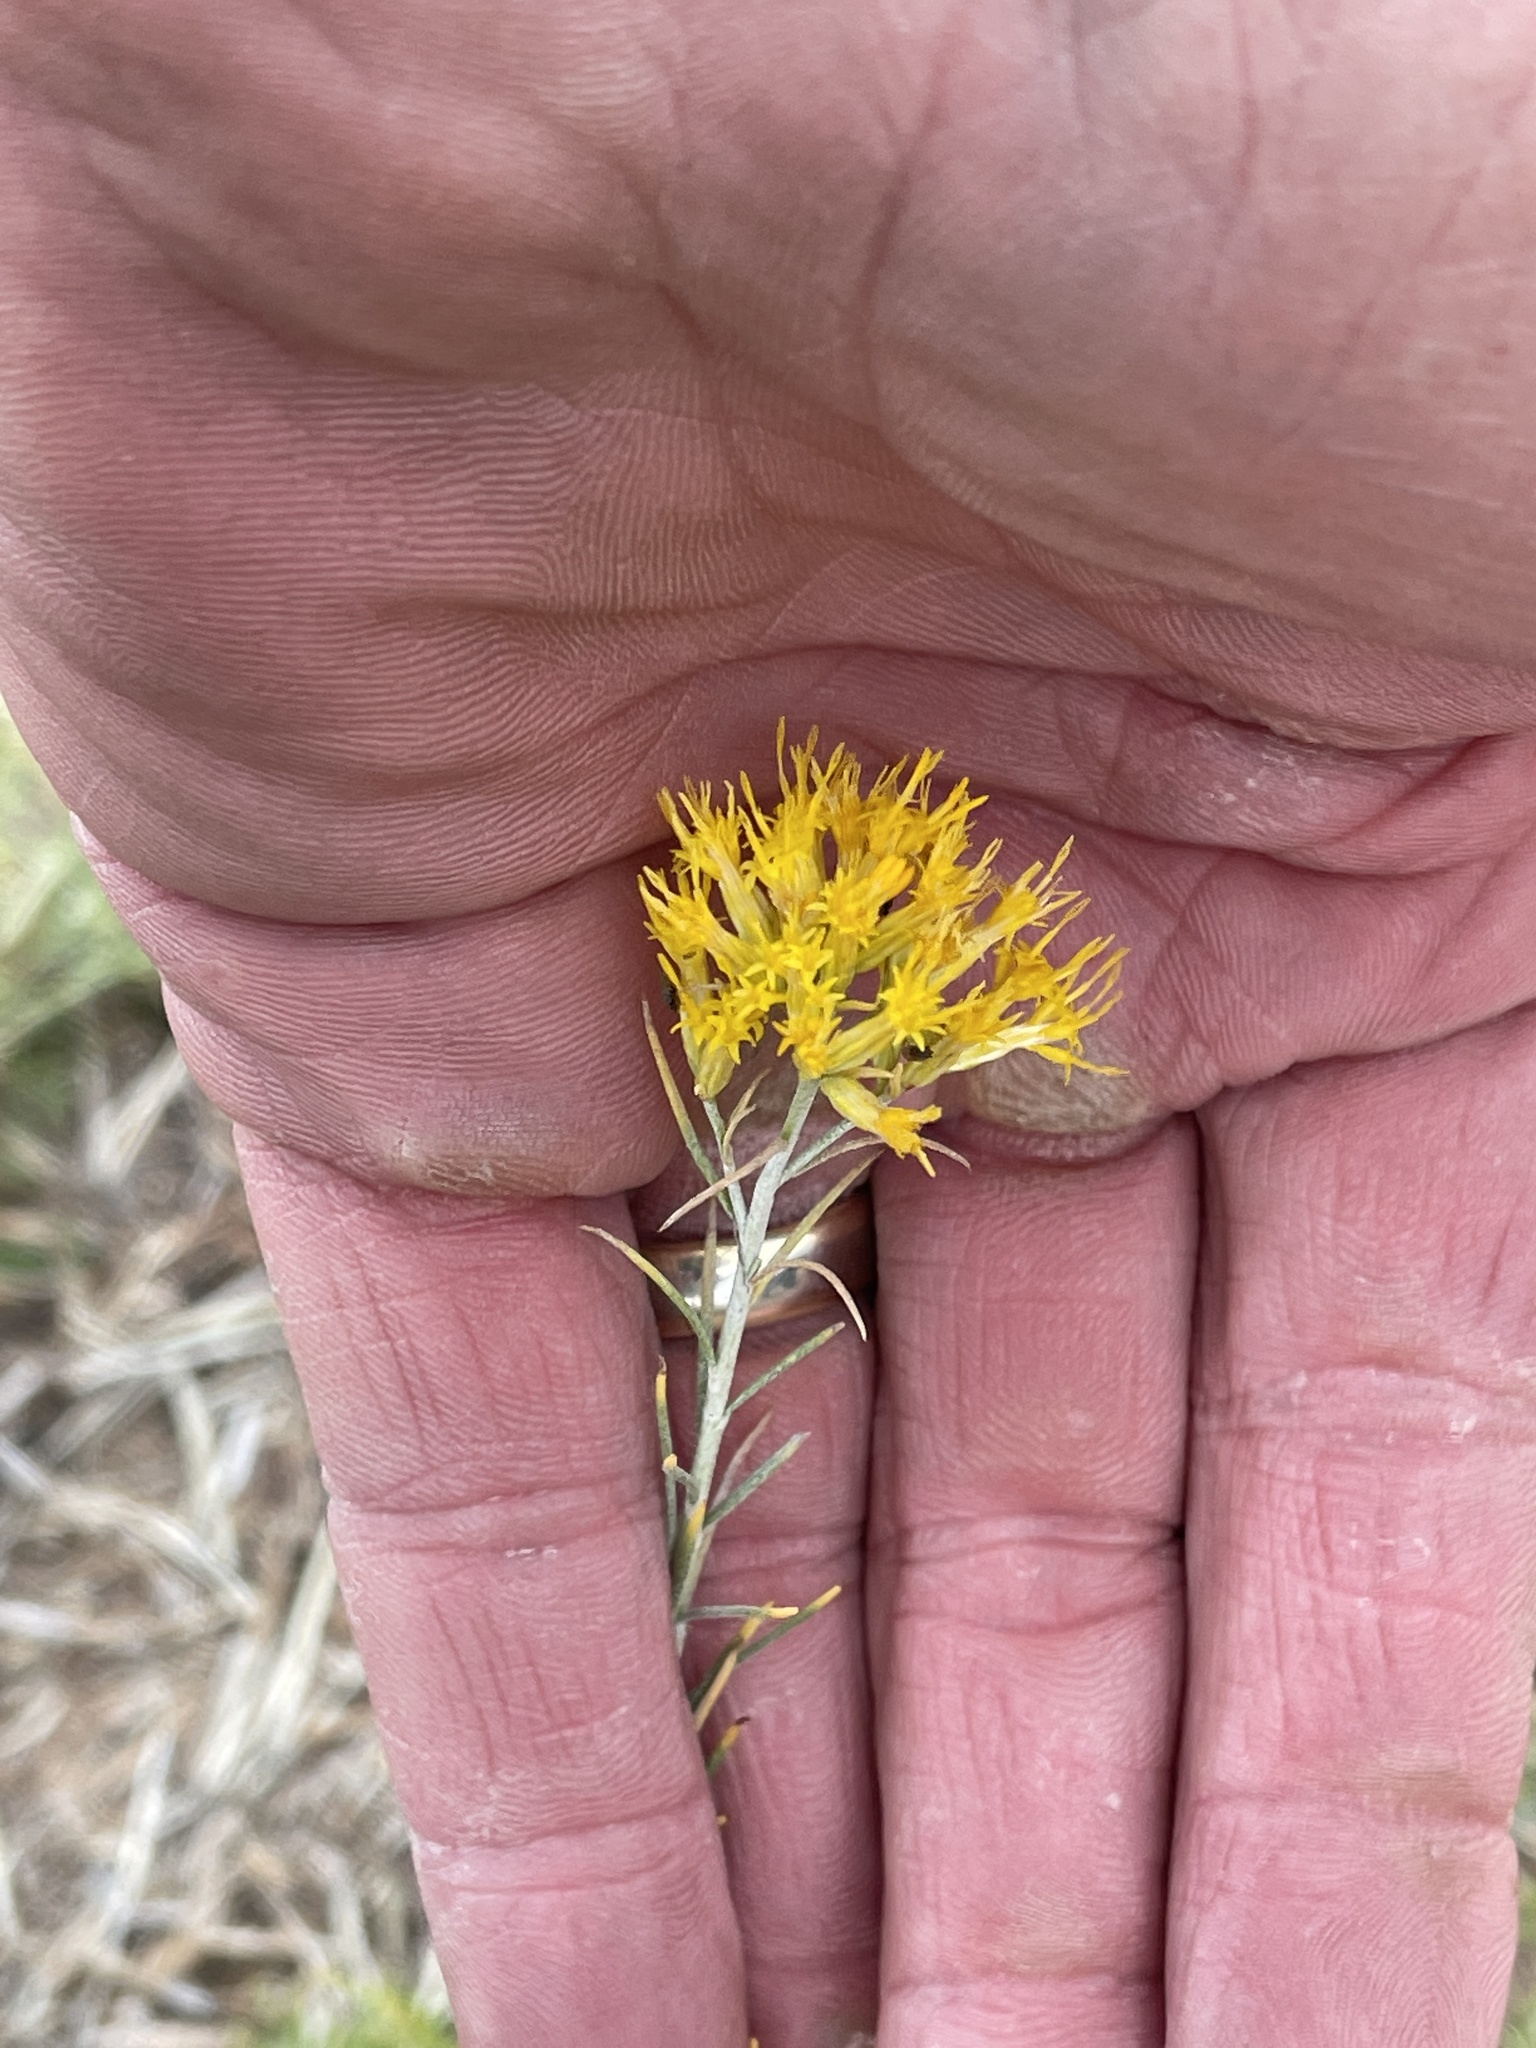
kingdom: Plantae
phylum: Tracheophyta
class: Magnoliopsida
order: Asterales
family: Asteraceae
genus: Ericameria
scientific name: Ericameria nauseosa
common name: Rubber rabbitbrush
